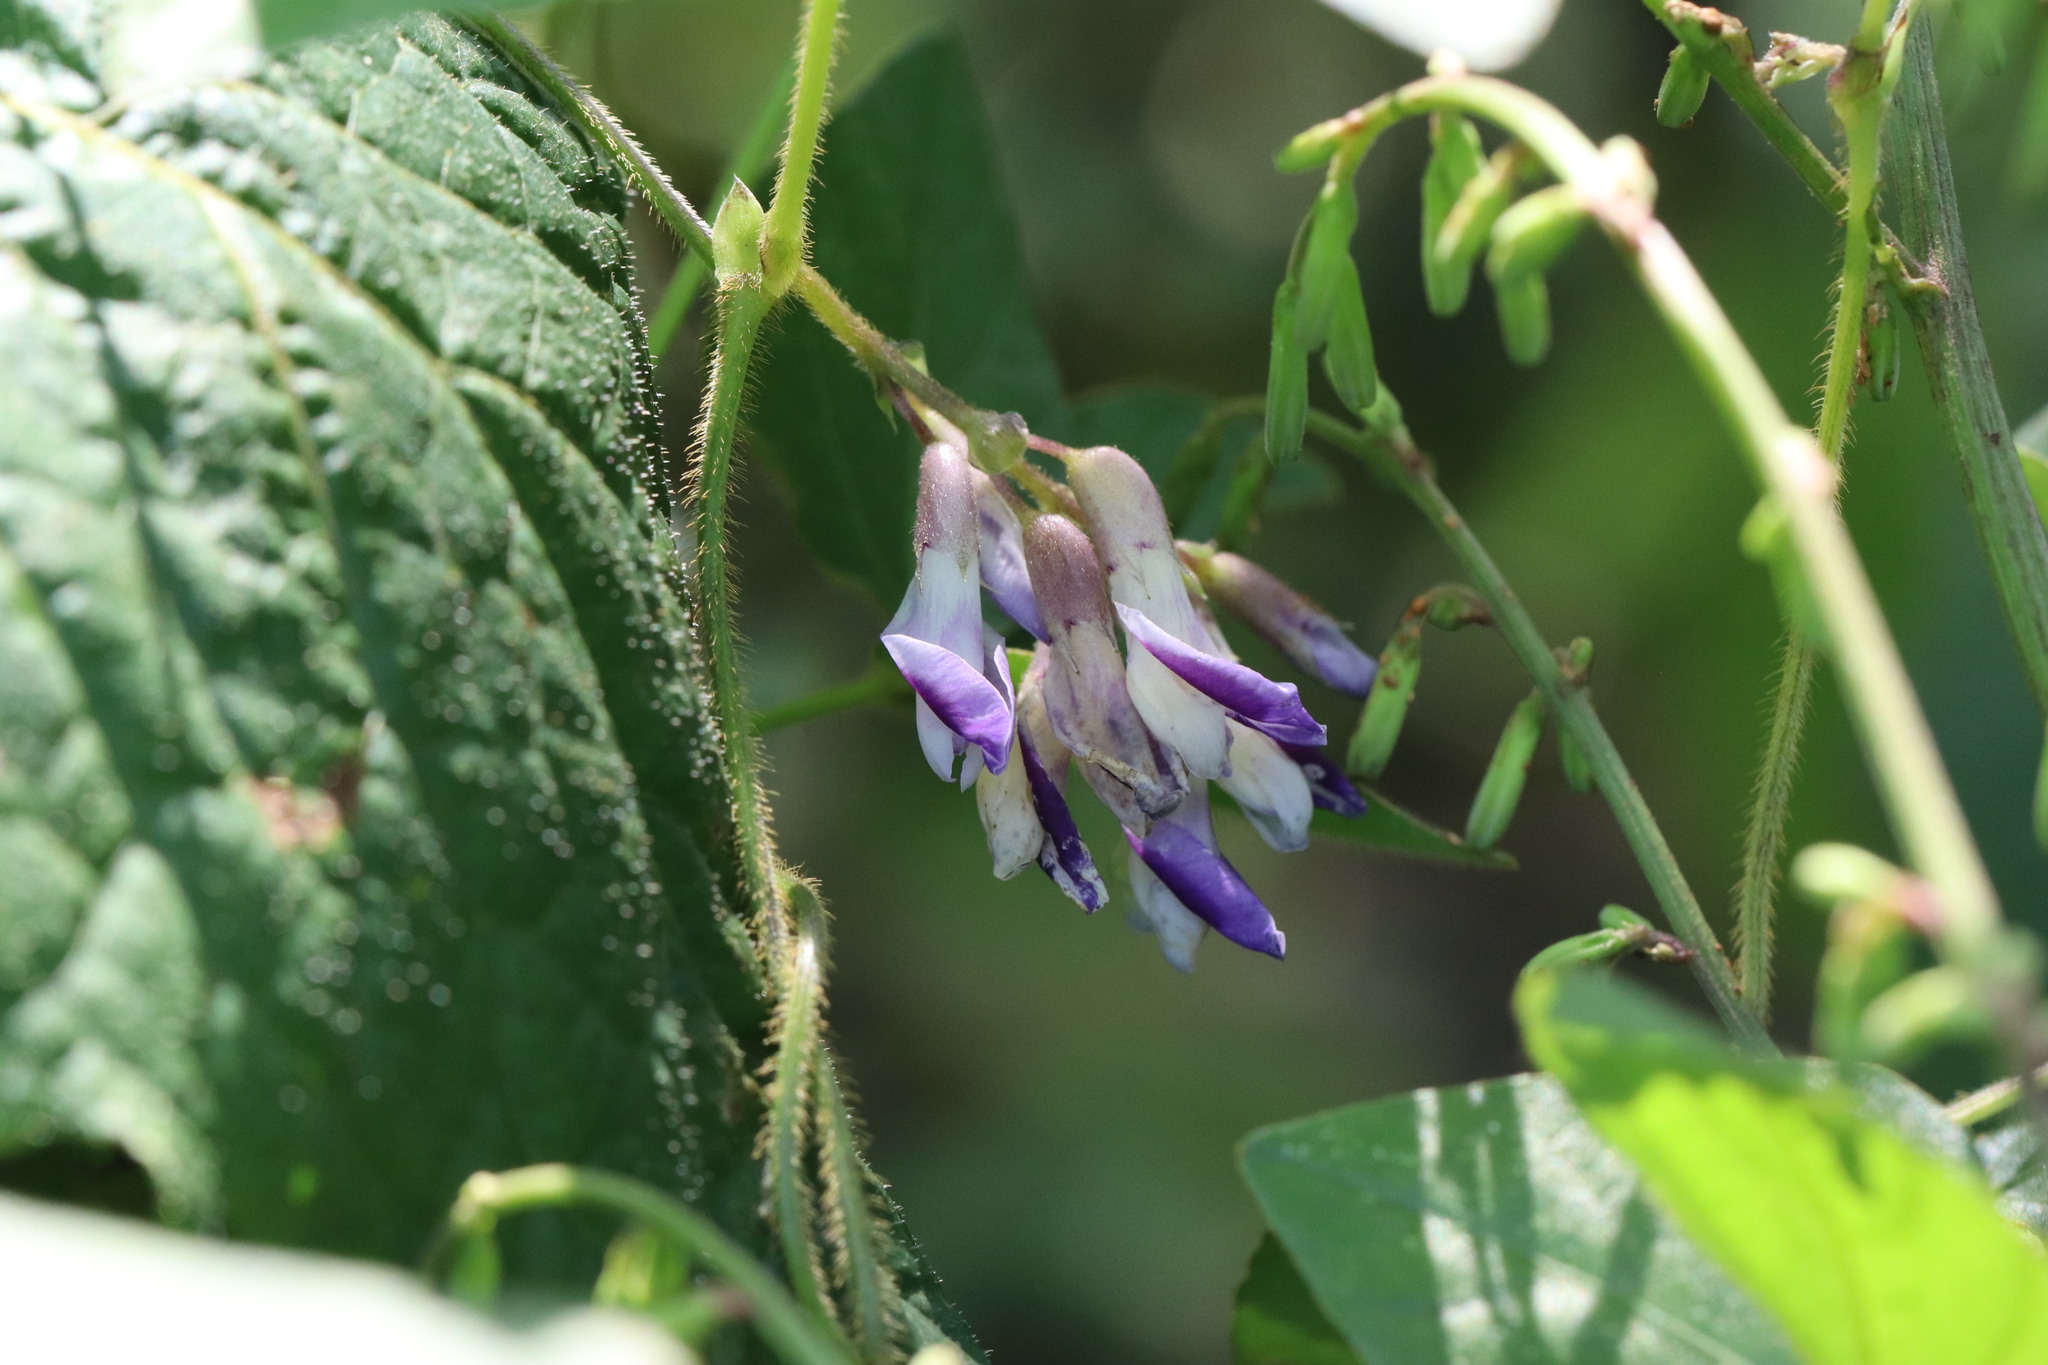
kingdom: Plantae
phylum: Tracheophyta
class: Magnoliopsida
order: Fabales
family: Fabaceae
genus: Amphicarpaea
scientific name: Amphicarpaea edgeworthii
